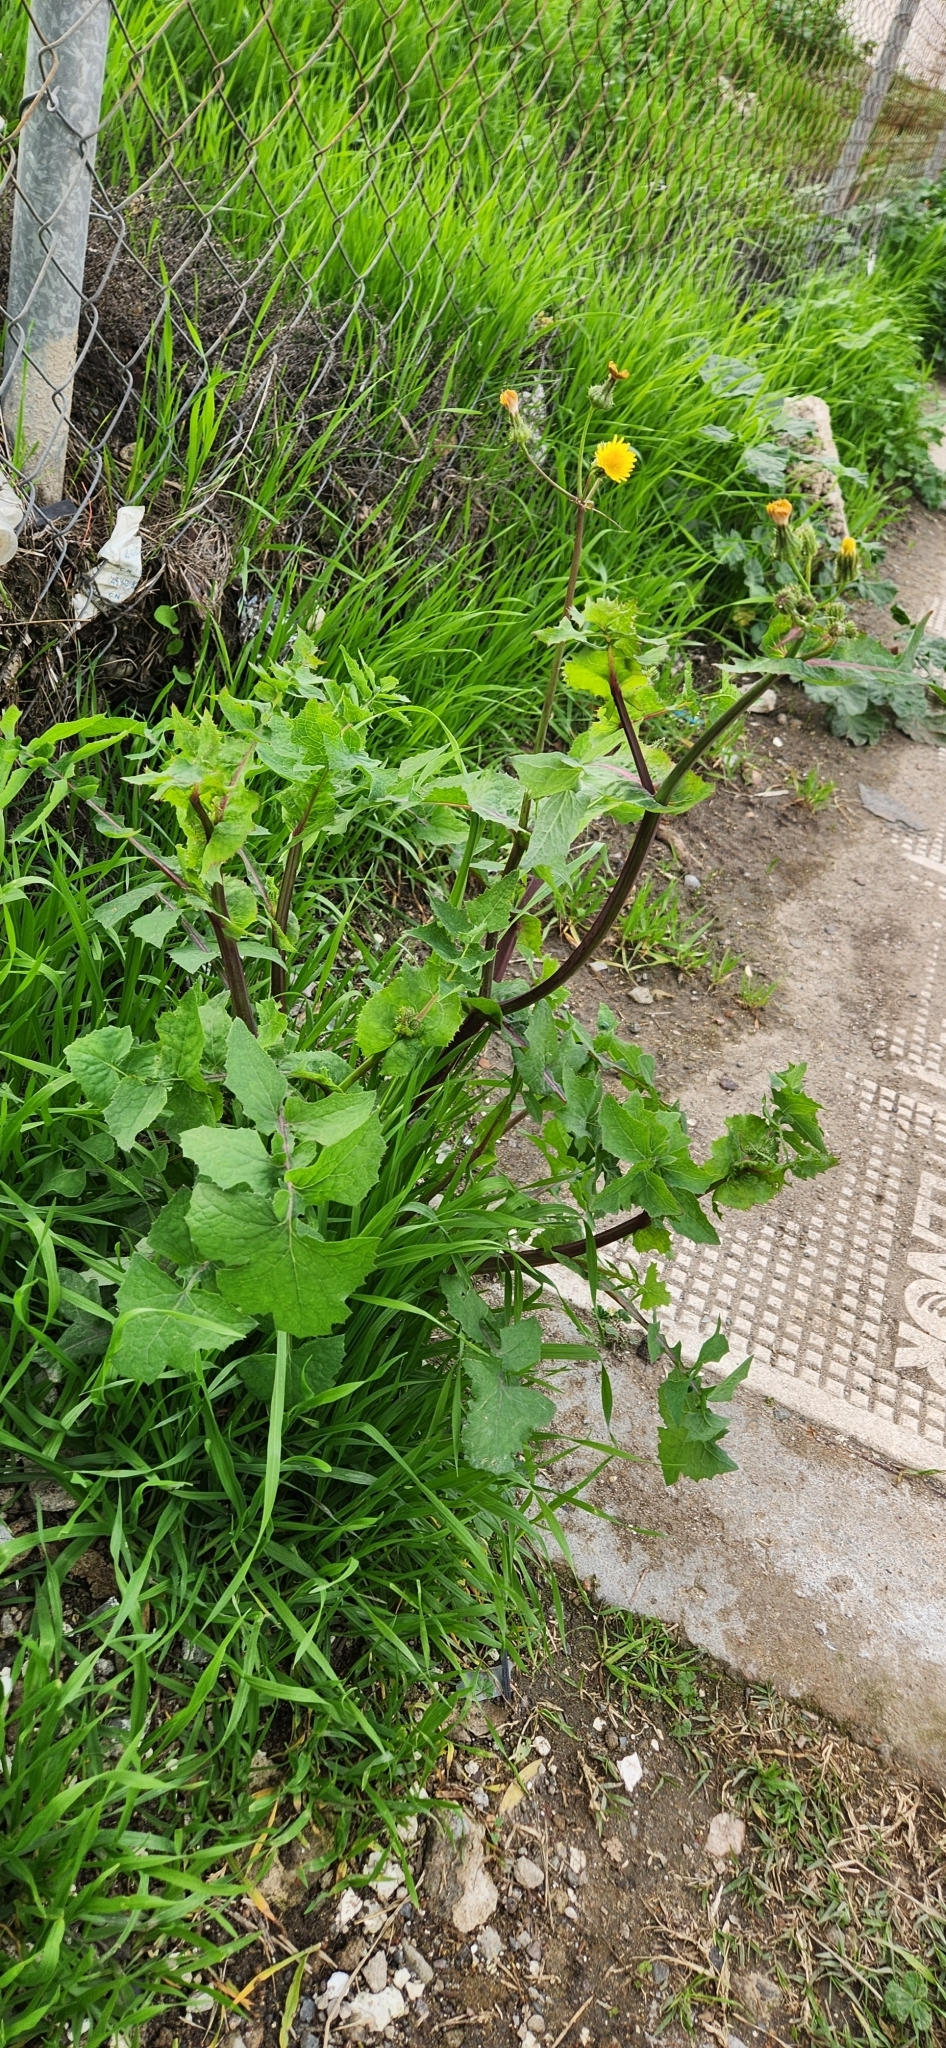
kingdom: Plantae
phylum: Tracheophyta
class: Magnoliopsida
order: Asterales
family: Asteraceae
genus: Sonchus
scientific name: Sonchus oleraceus
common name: Common sowthistle
